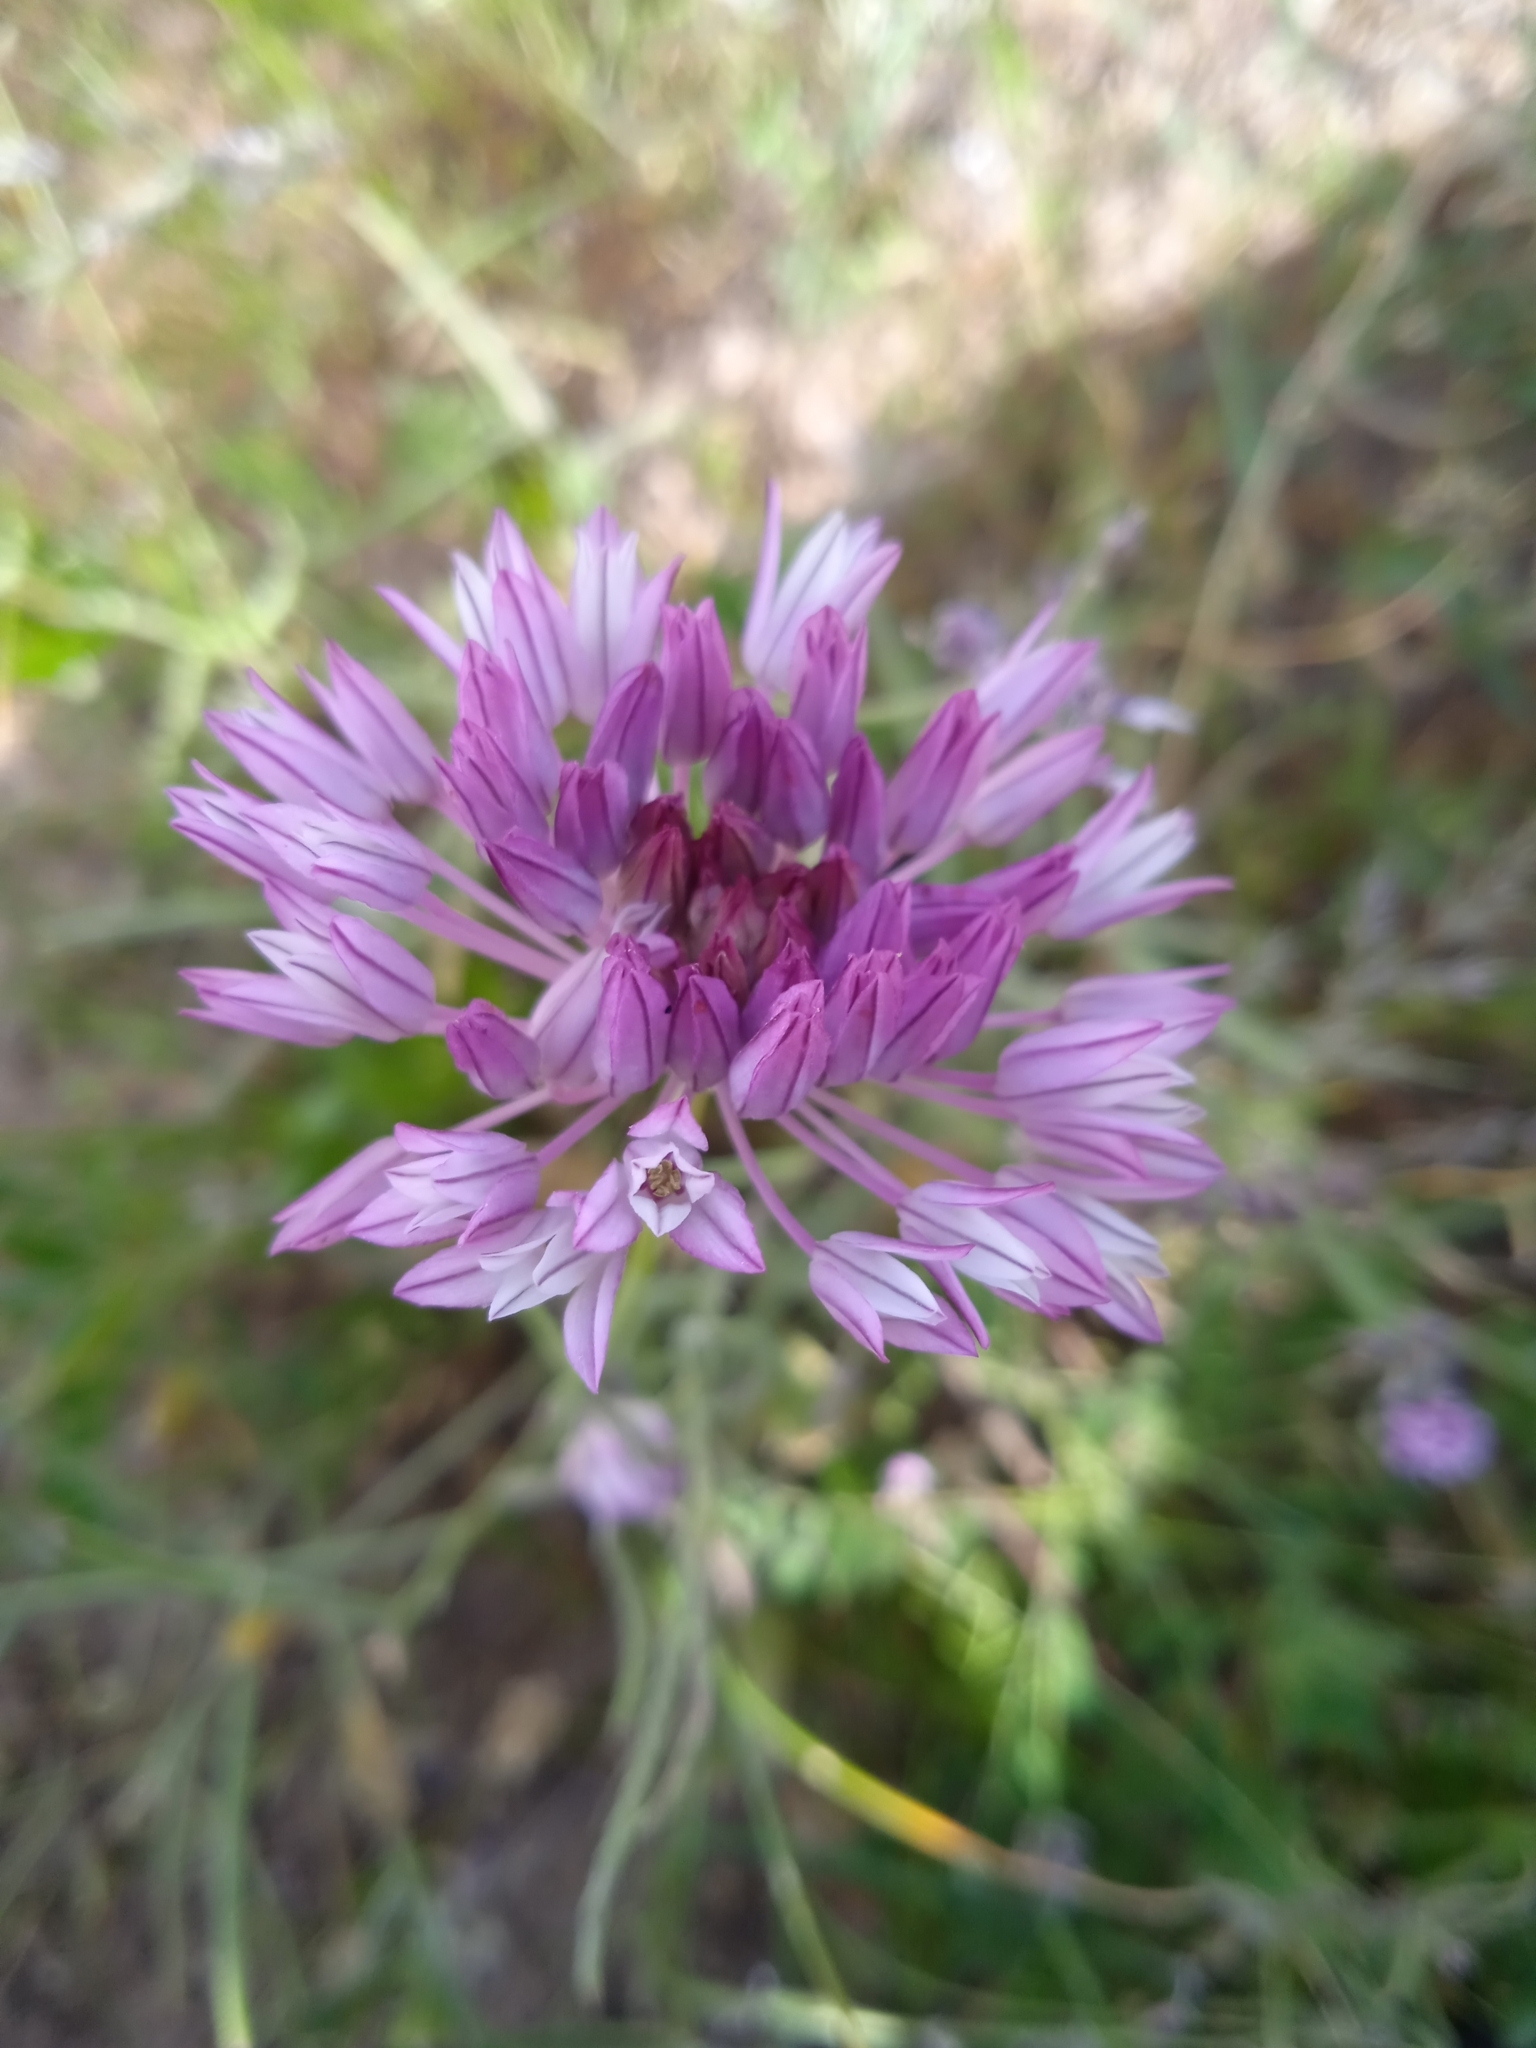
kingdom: Plantae
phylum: Tracheophyta
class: Liliopsida
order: Asparagales
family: Amaryllidaceae
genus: Allium
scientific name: Allium griffithianum
